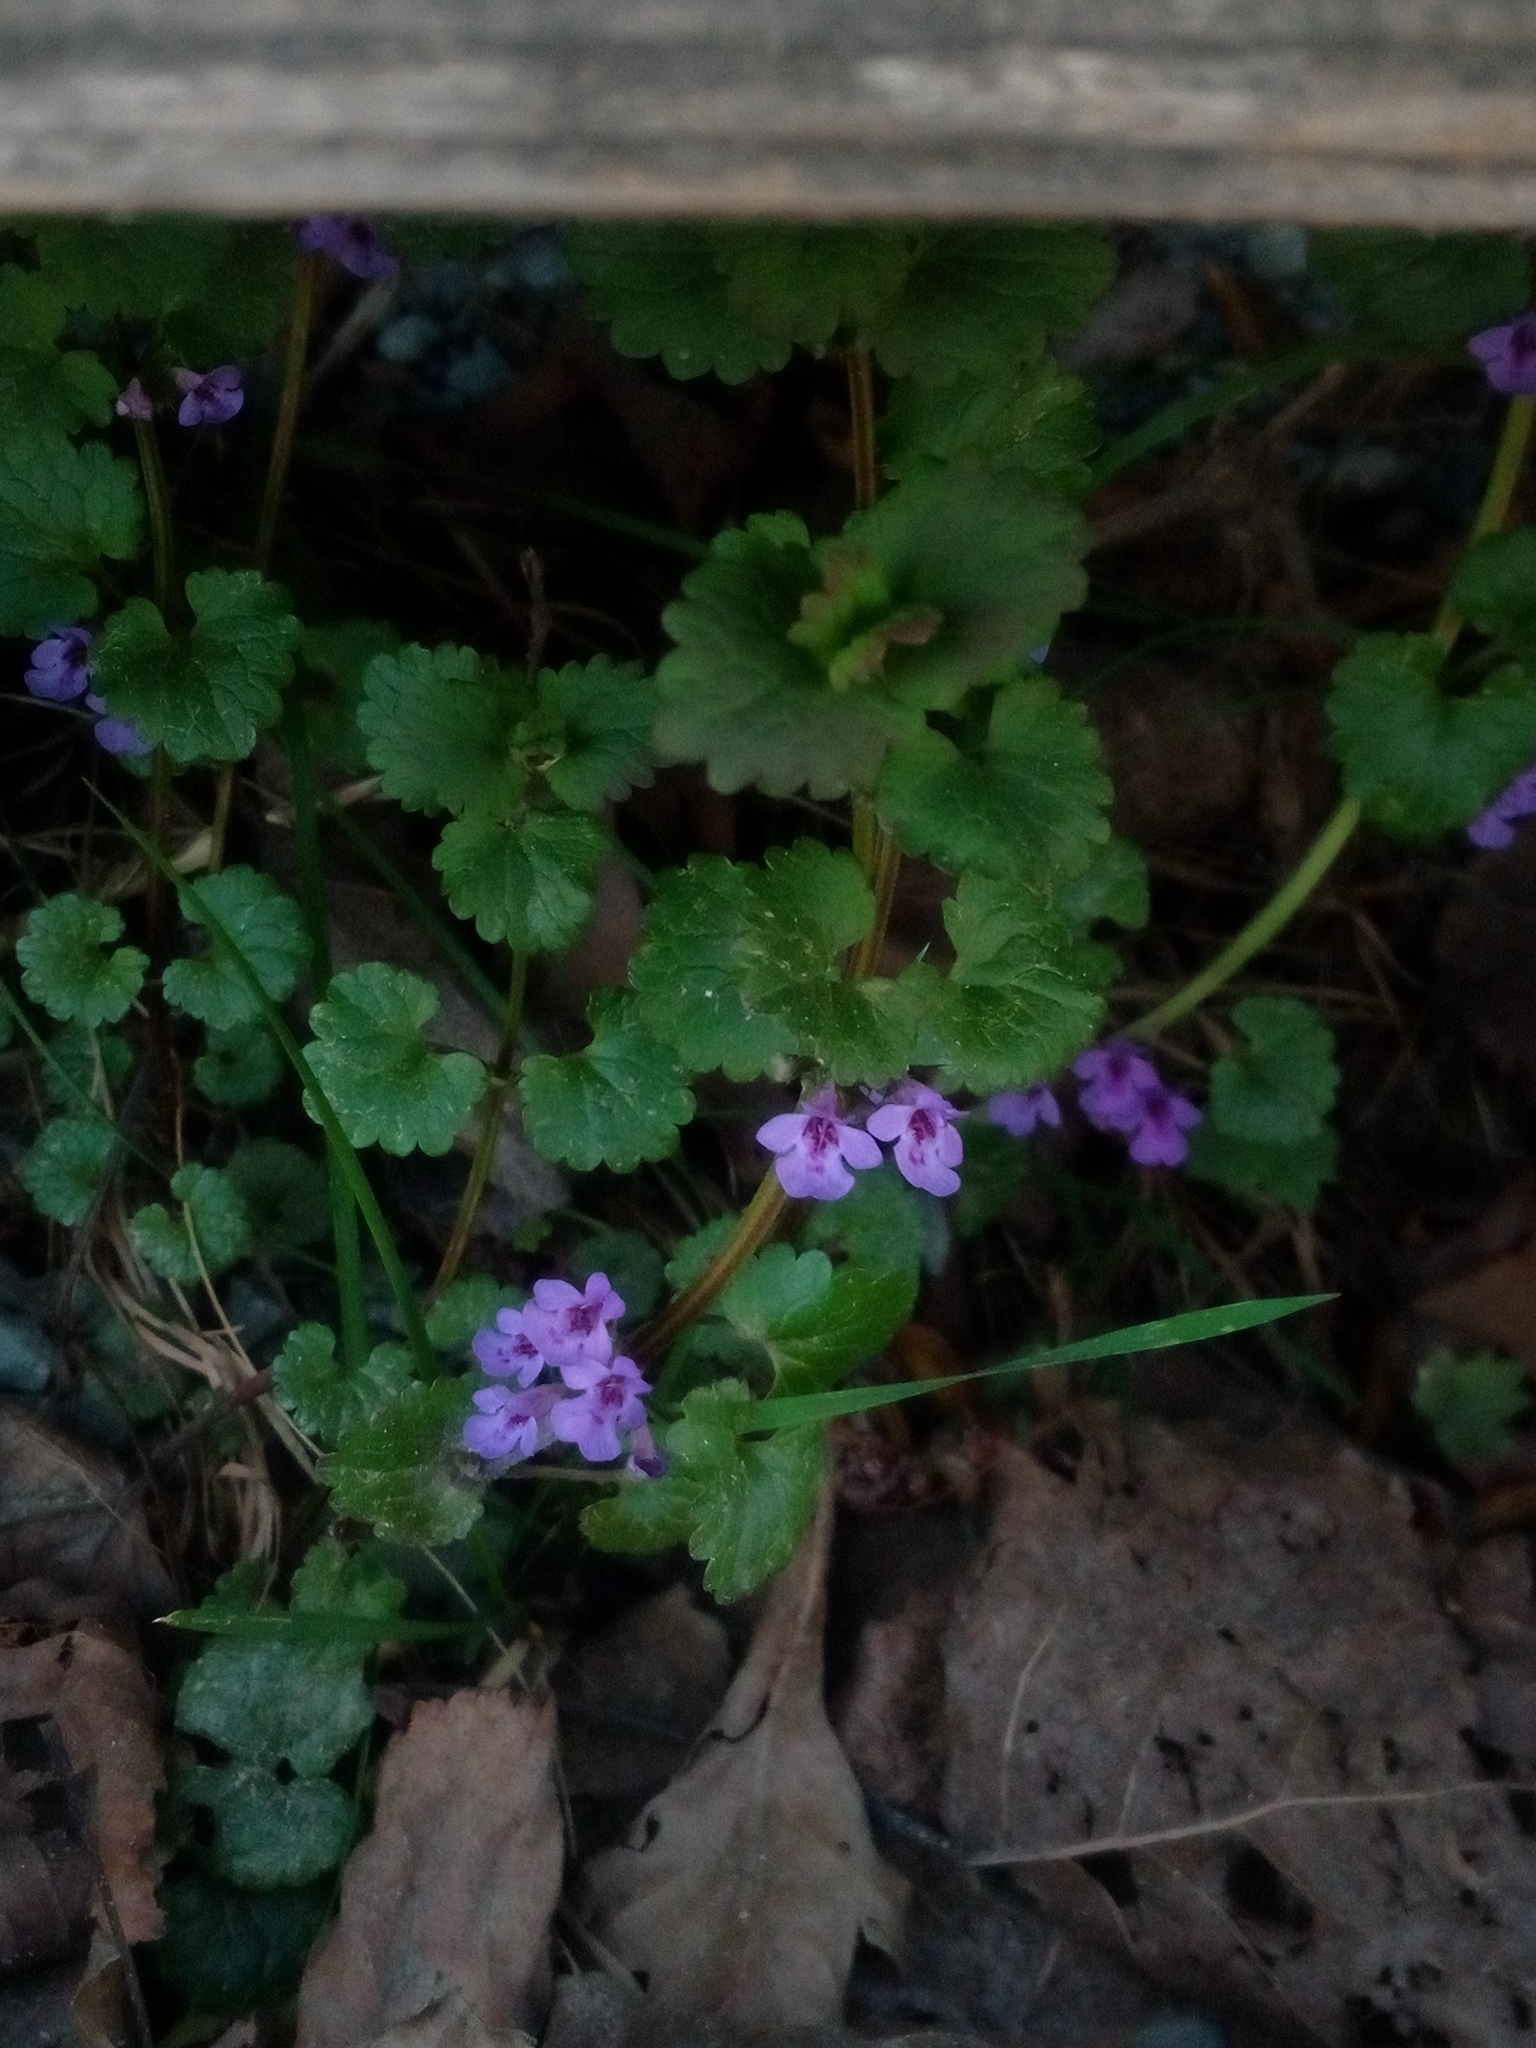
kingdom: Plantae
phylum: Tracheophyta
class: Magnoliopsida
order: Lamiales
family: Lamiaceae
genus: Glechoma
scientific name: Glechoma hederacea
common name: Ground ivy
